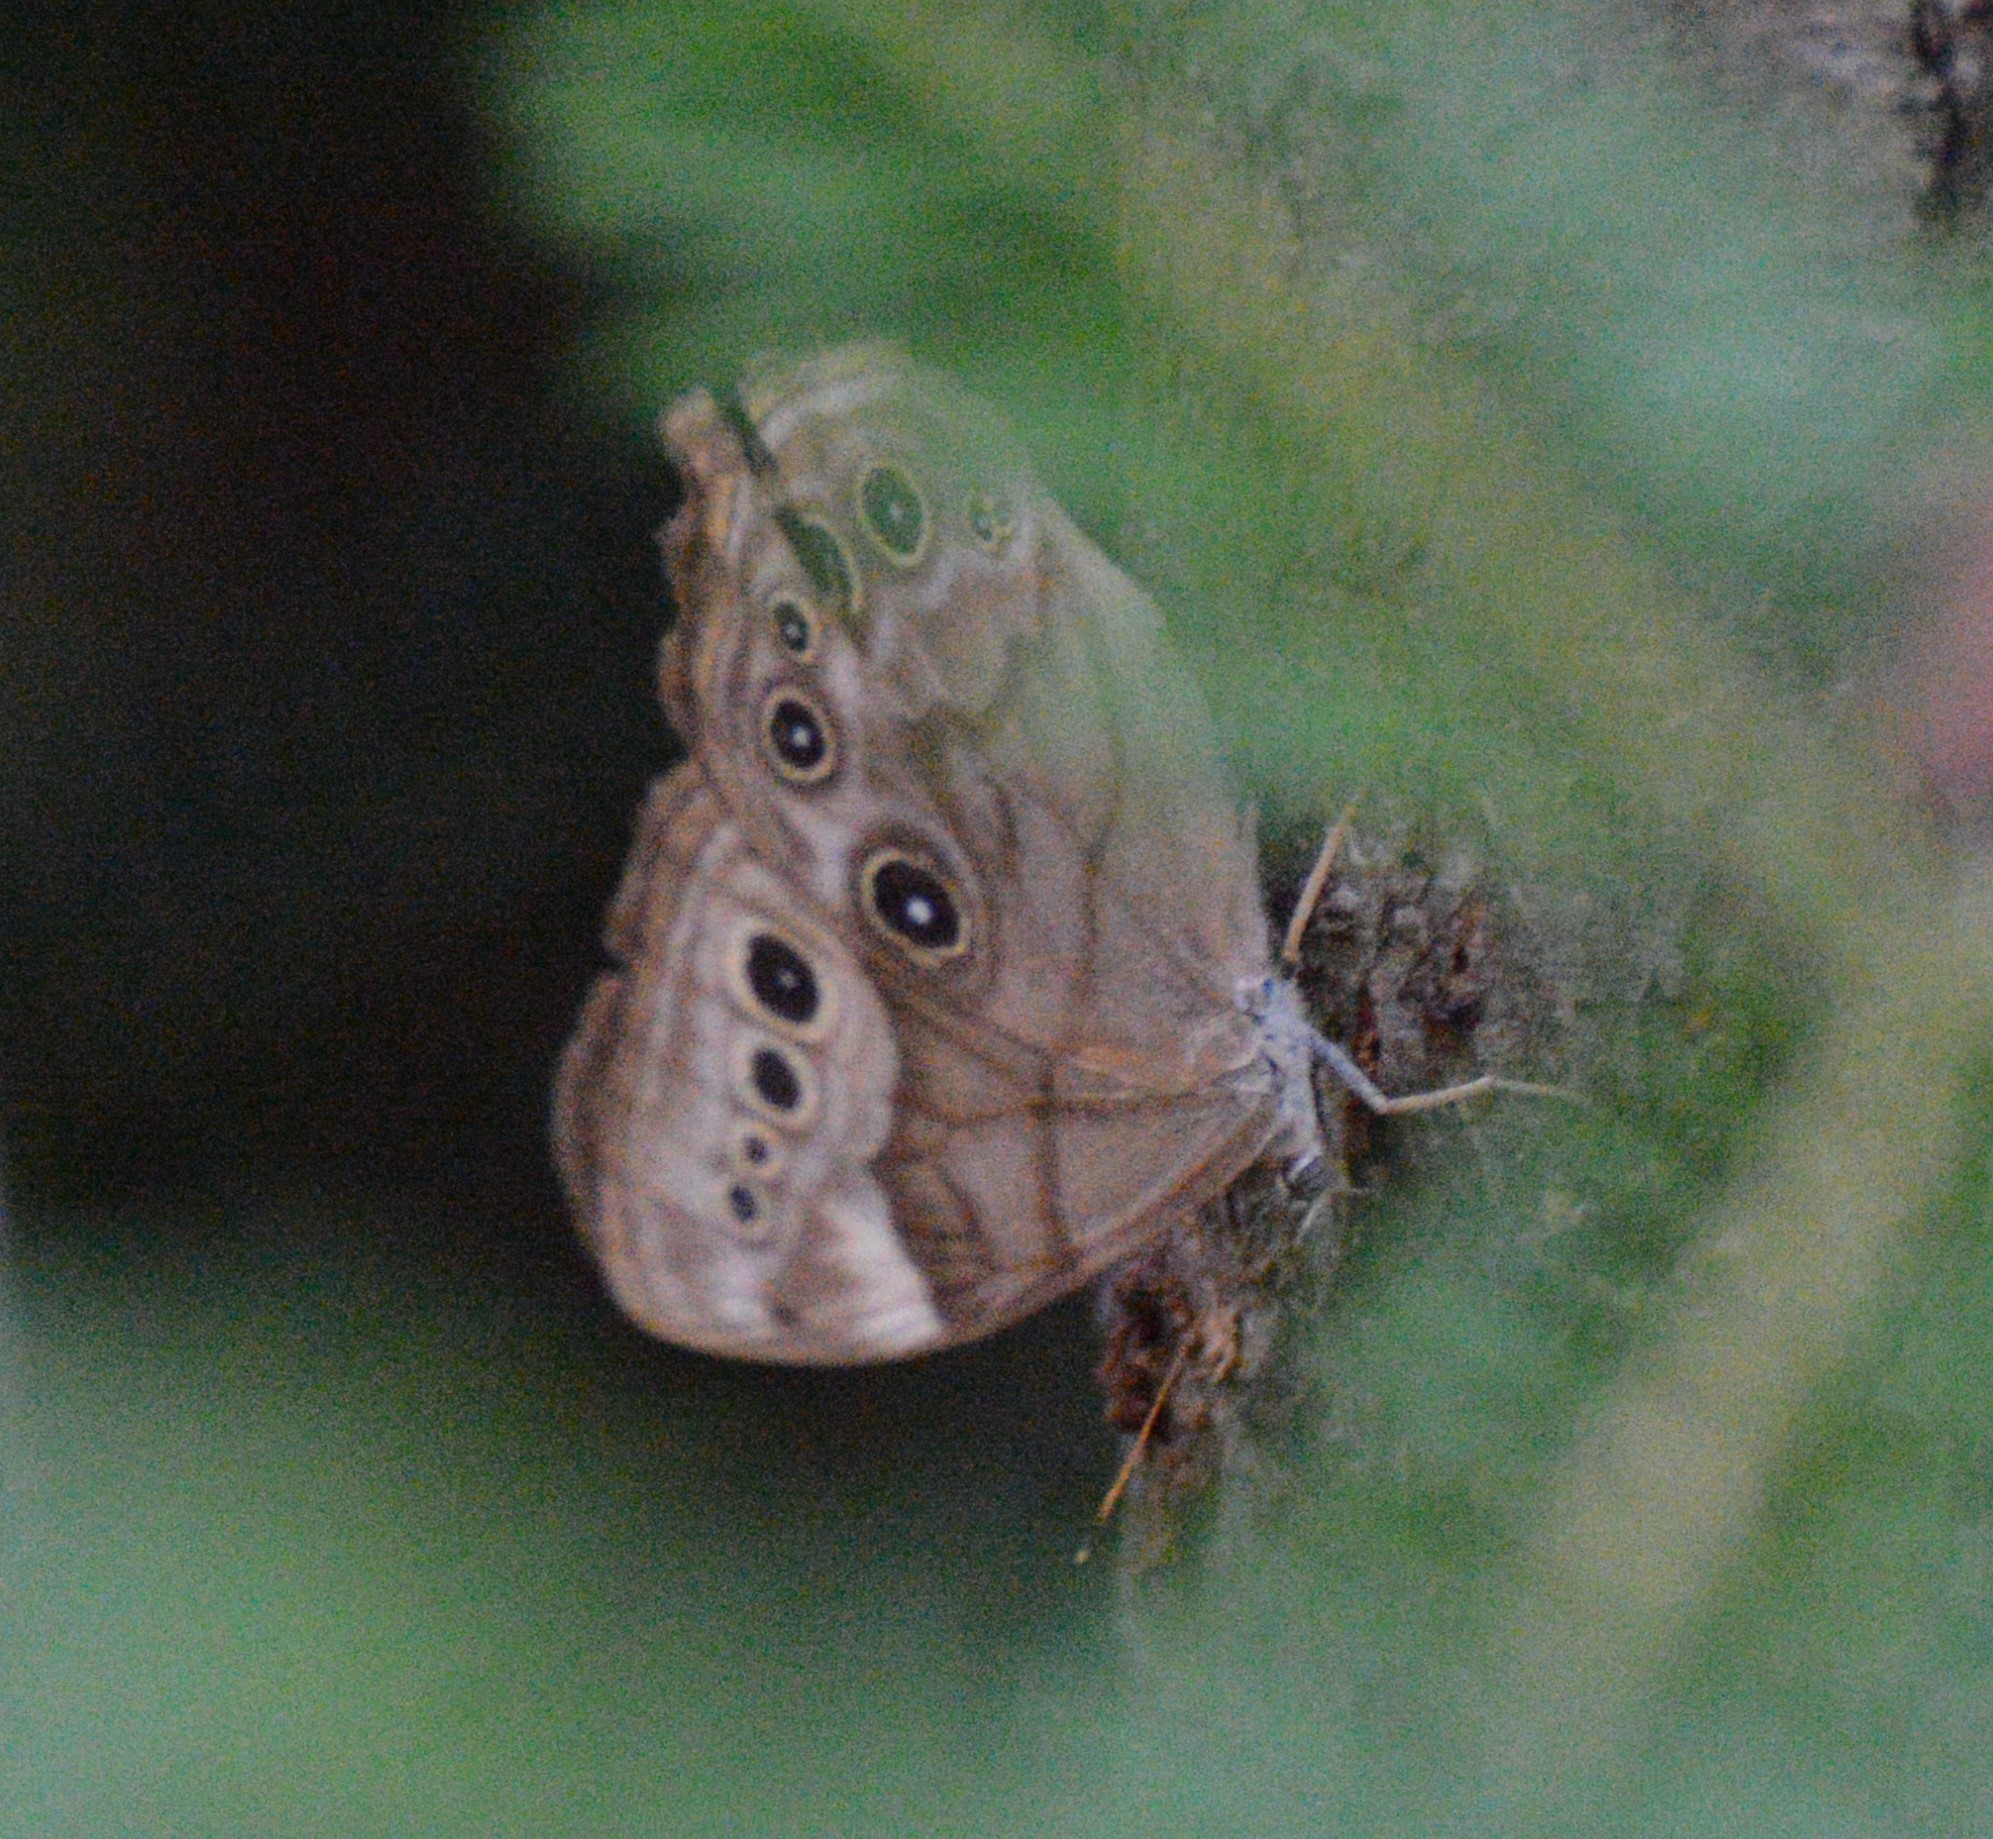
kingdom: Animalia
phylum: Arthropoda
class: Insecta
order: Lepidoptera
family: Nymphalidae
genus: Lethe
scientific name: Lethe anthedon
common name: Northern pearly-eye
